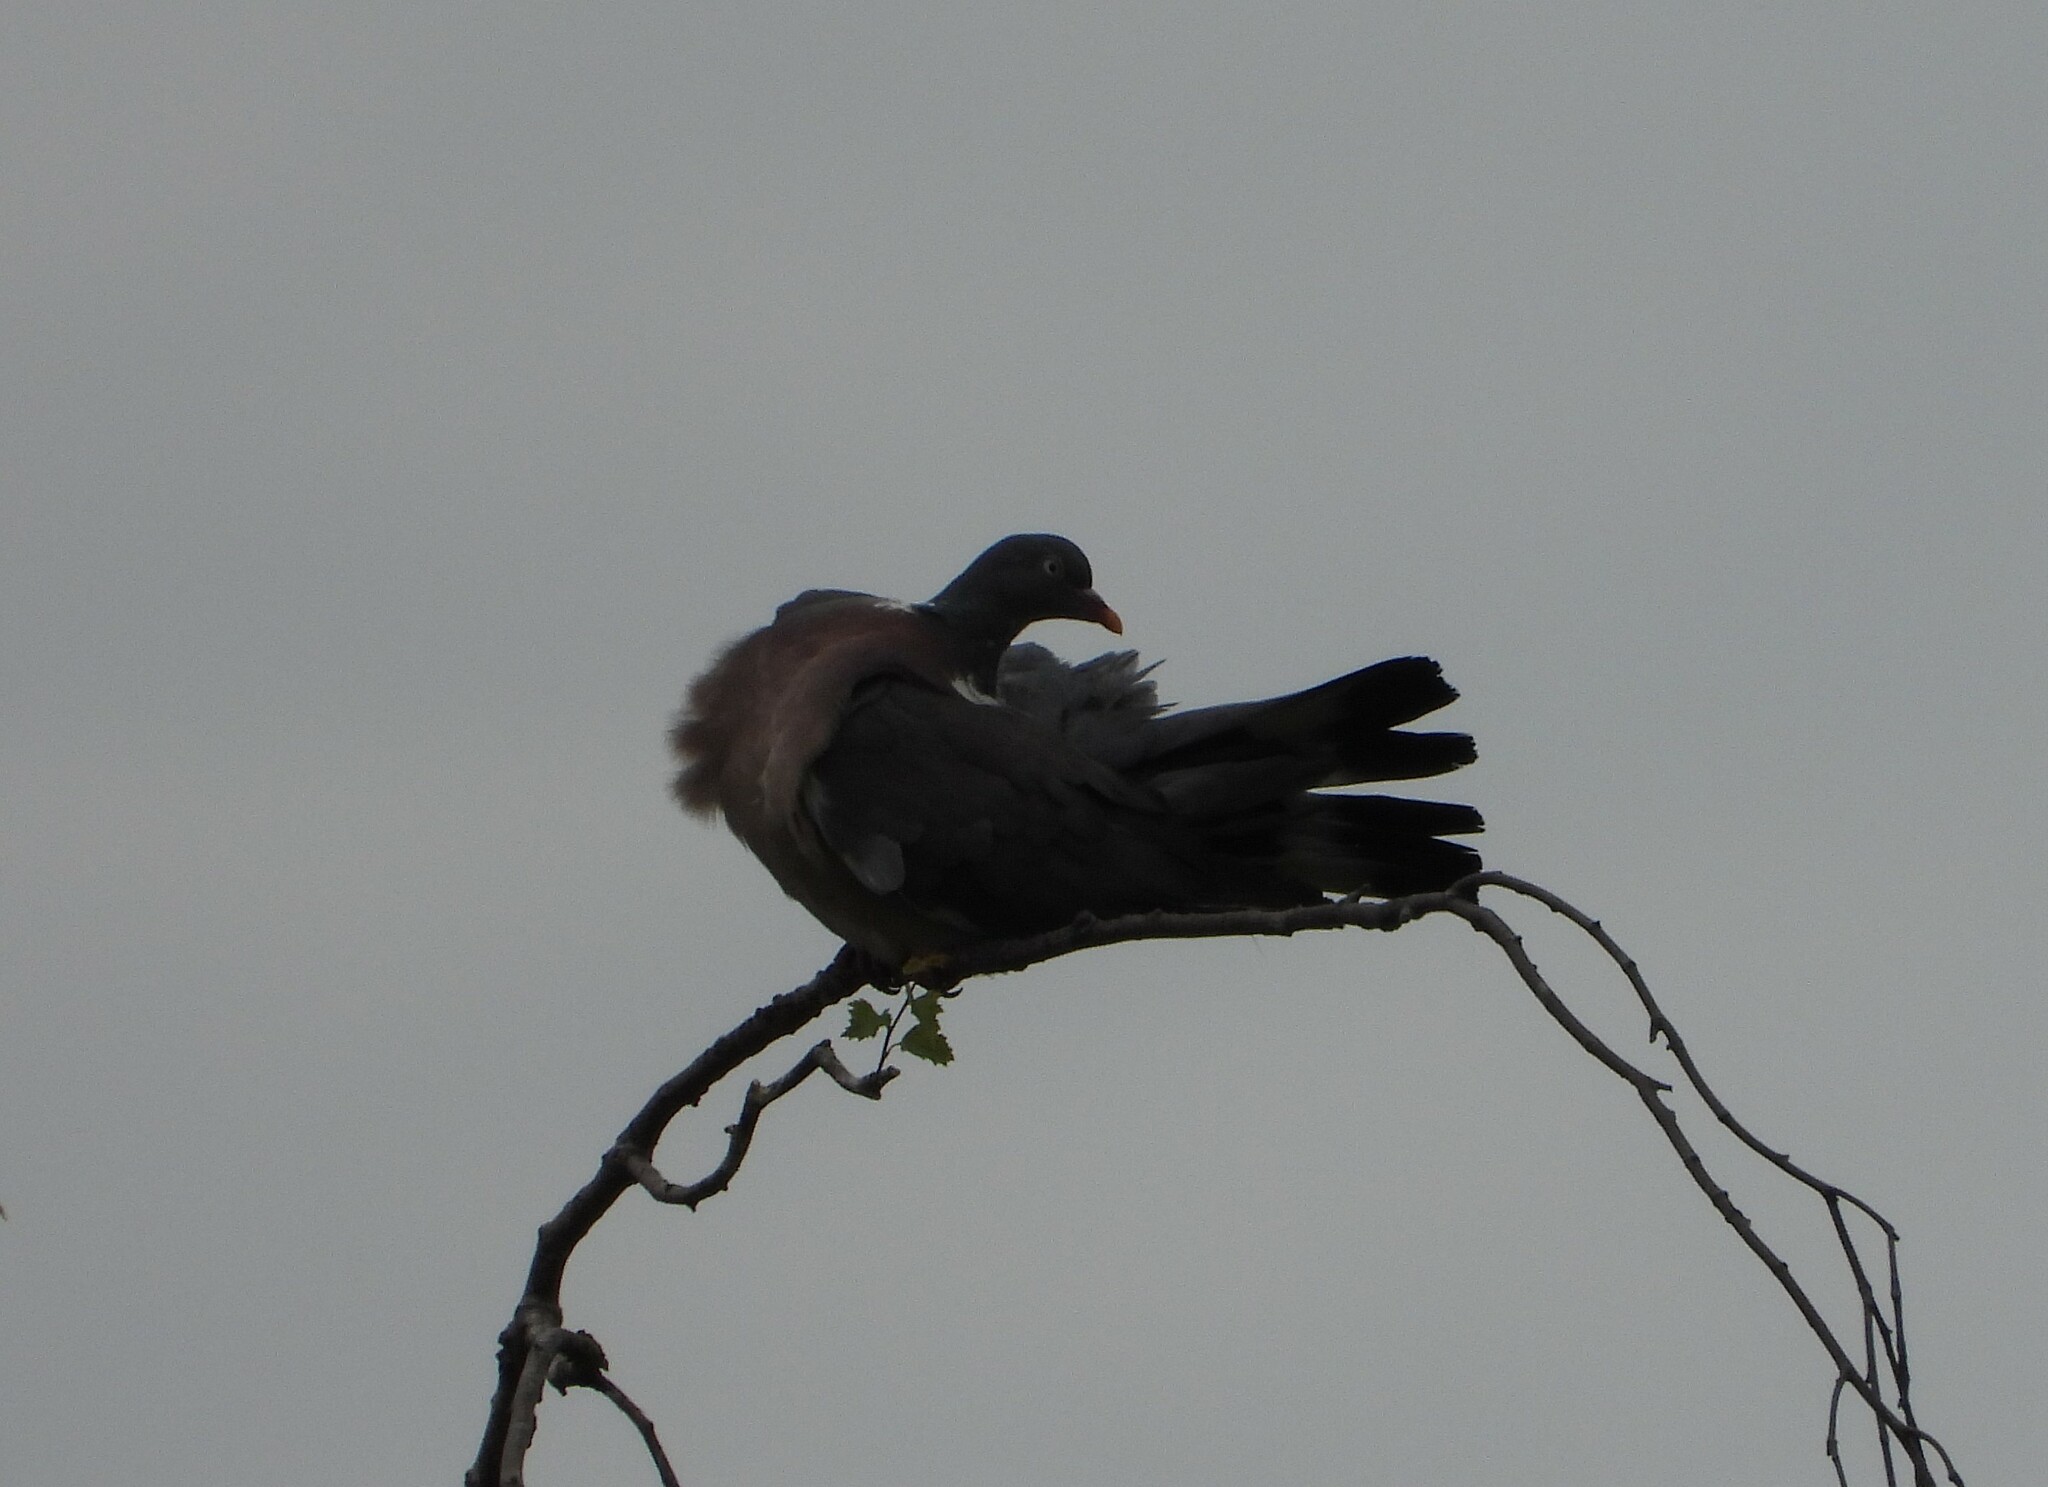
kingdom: Animalia
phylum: Chordata
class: Aves
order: Columbiformes
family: Columbidae
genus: Columba
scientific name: Columba palumbus
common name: Common wood pigeon
